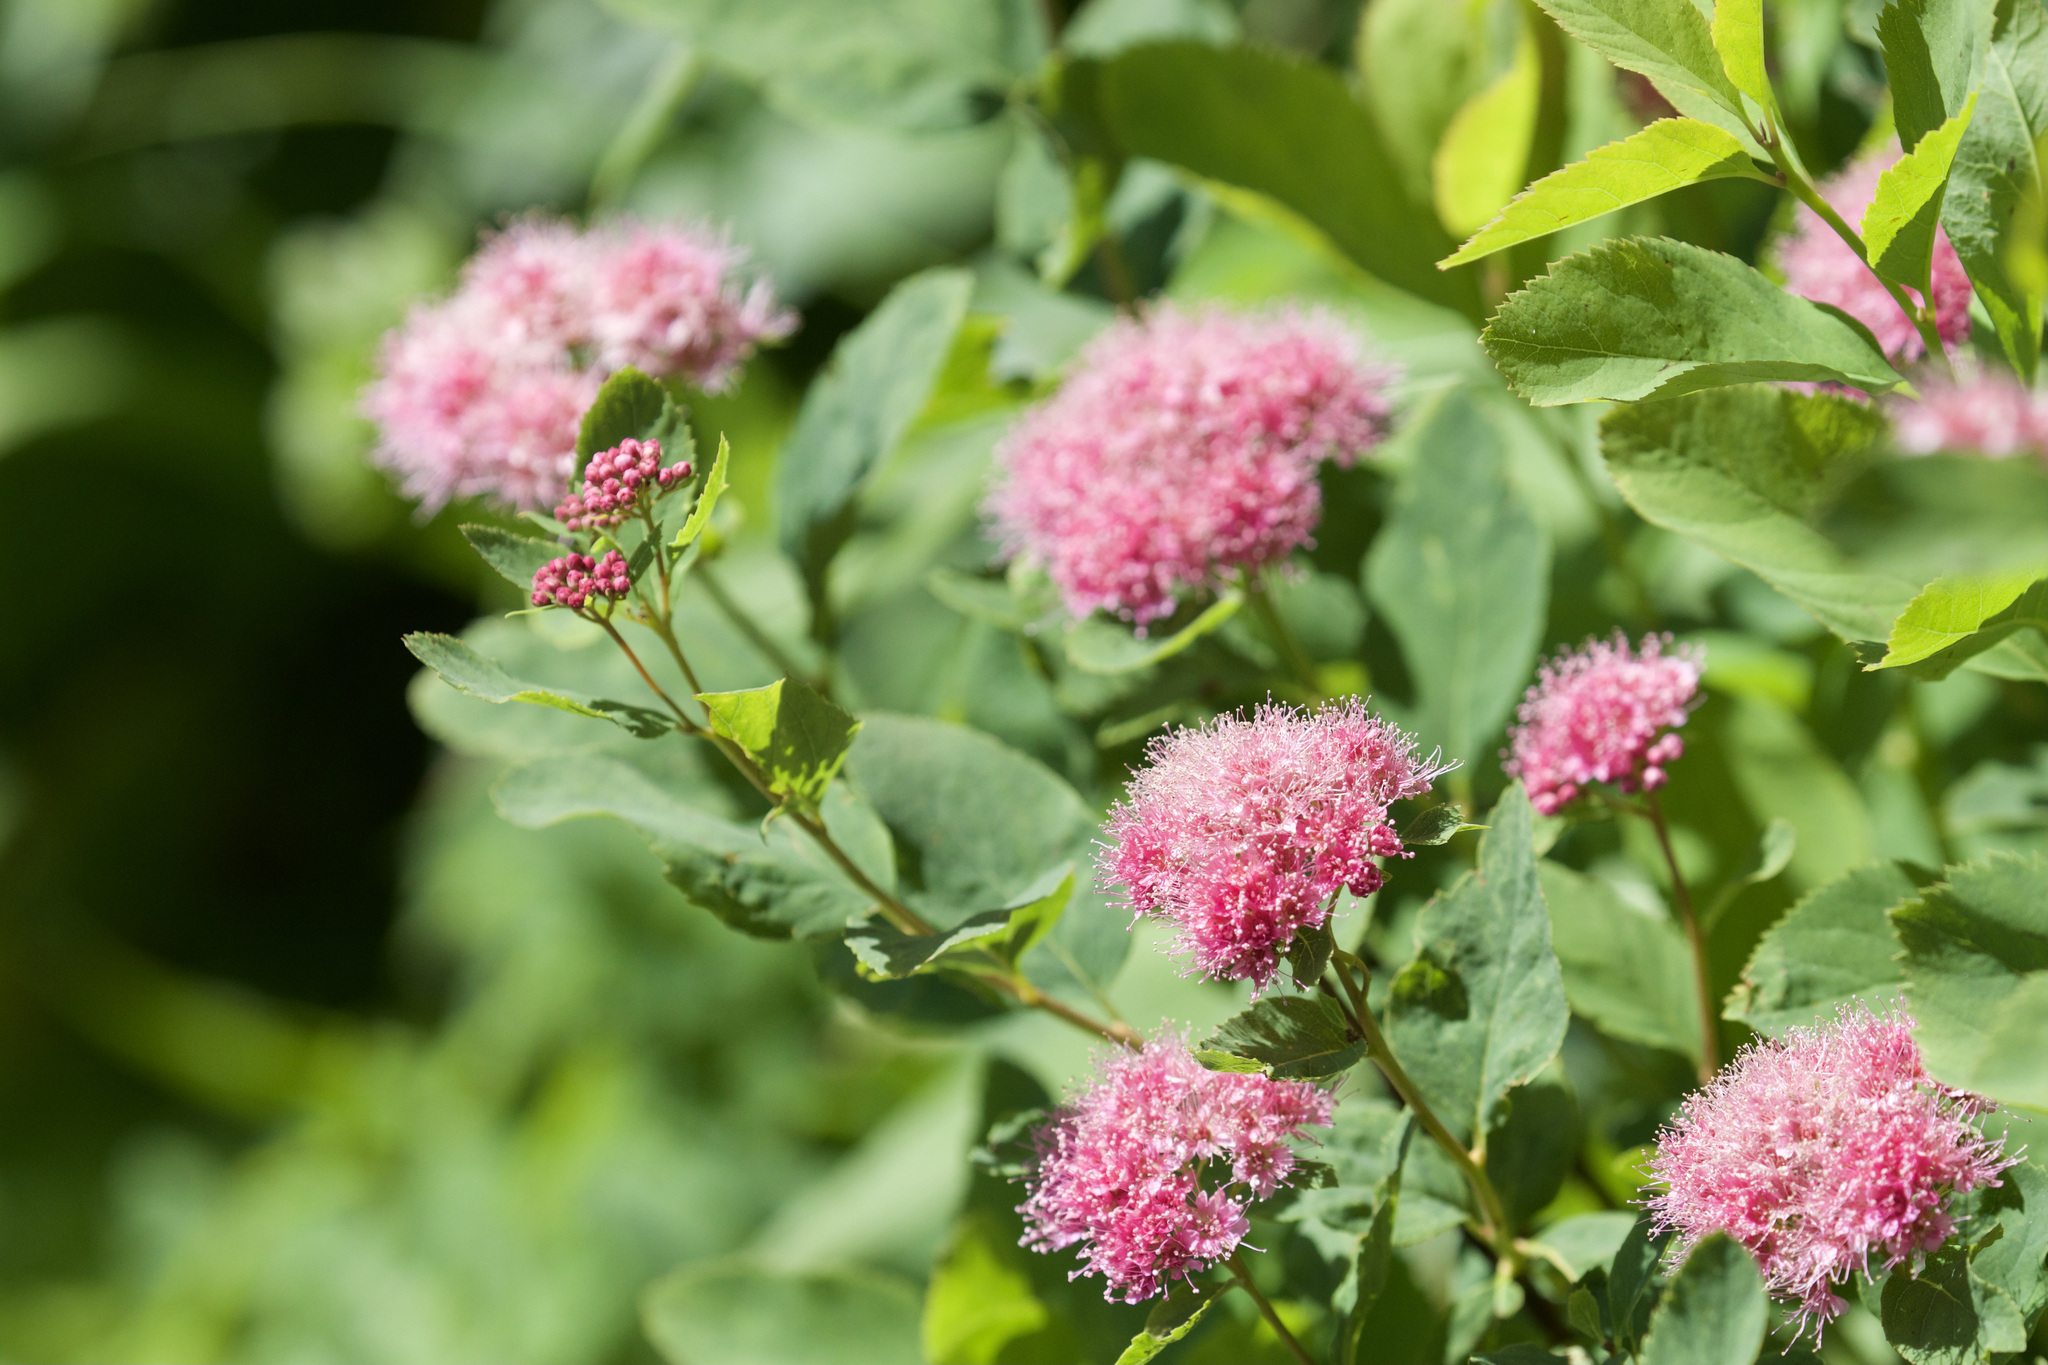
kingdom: Plantae
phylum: Tracheophyta
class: Magnoliopsida
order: Rosales
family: Rosaceae
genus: Spiraea
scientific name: Spiraea splendens
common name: Subalpine meadowsweet
